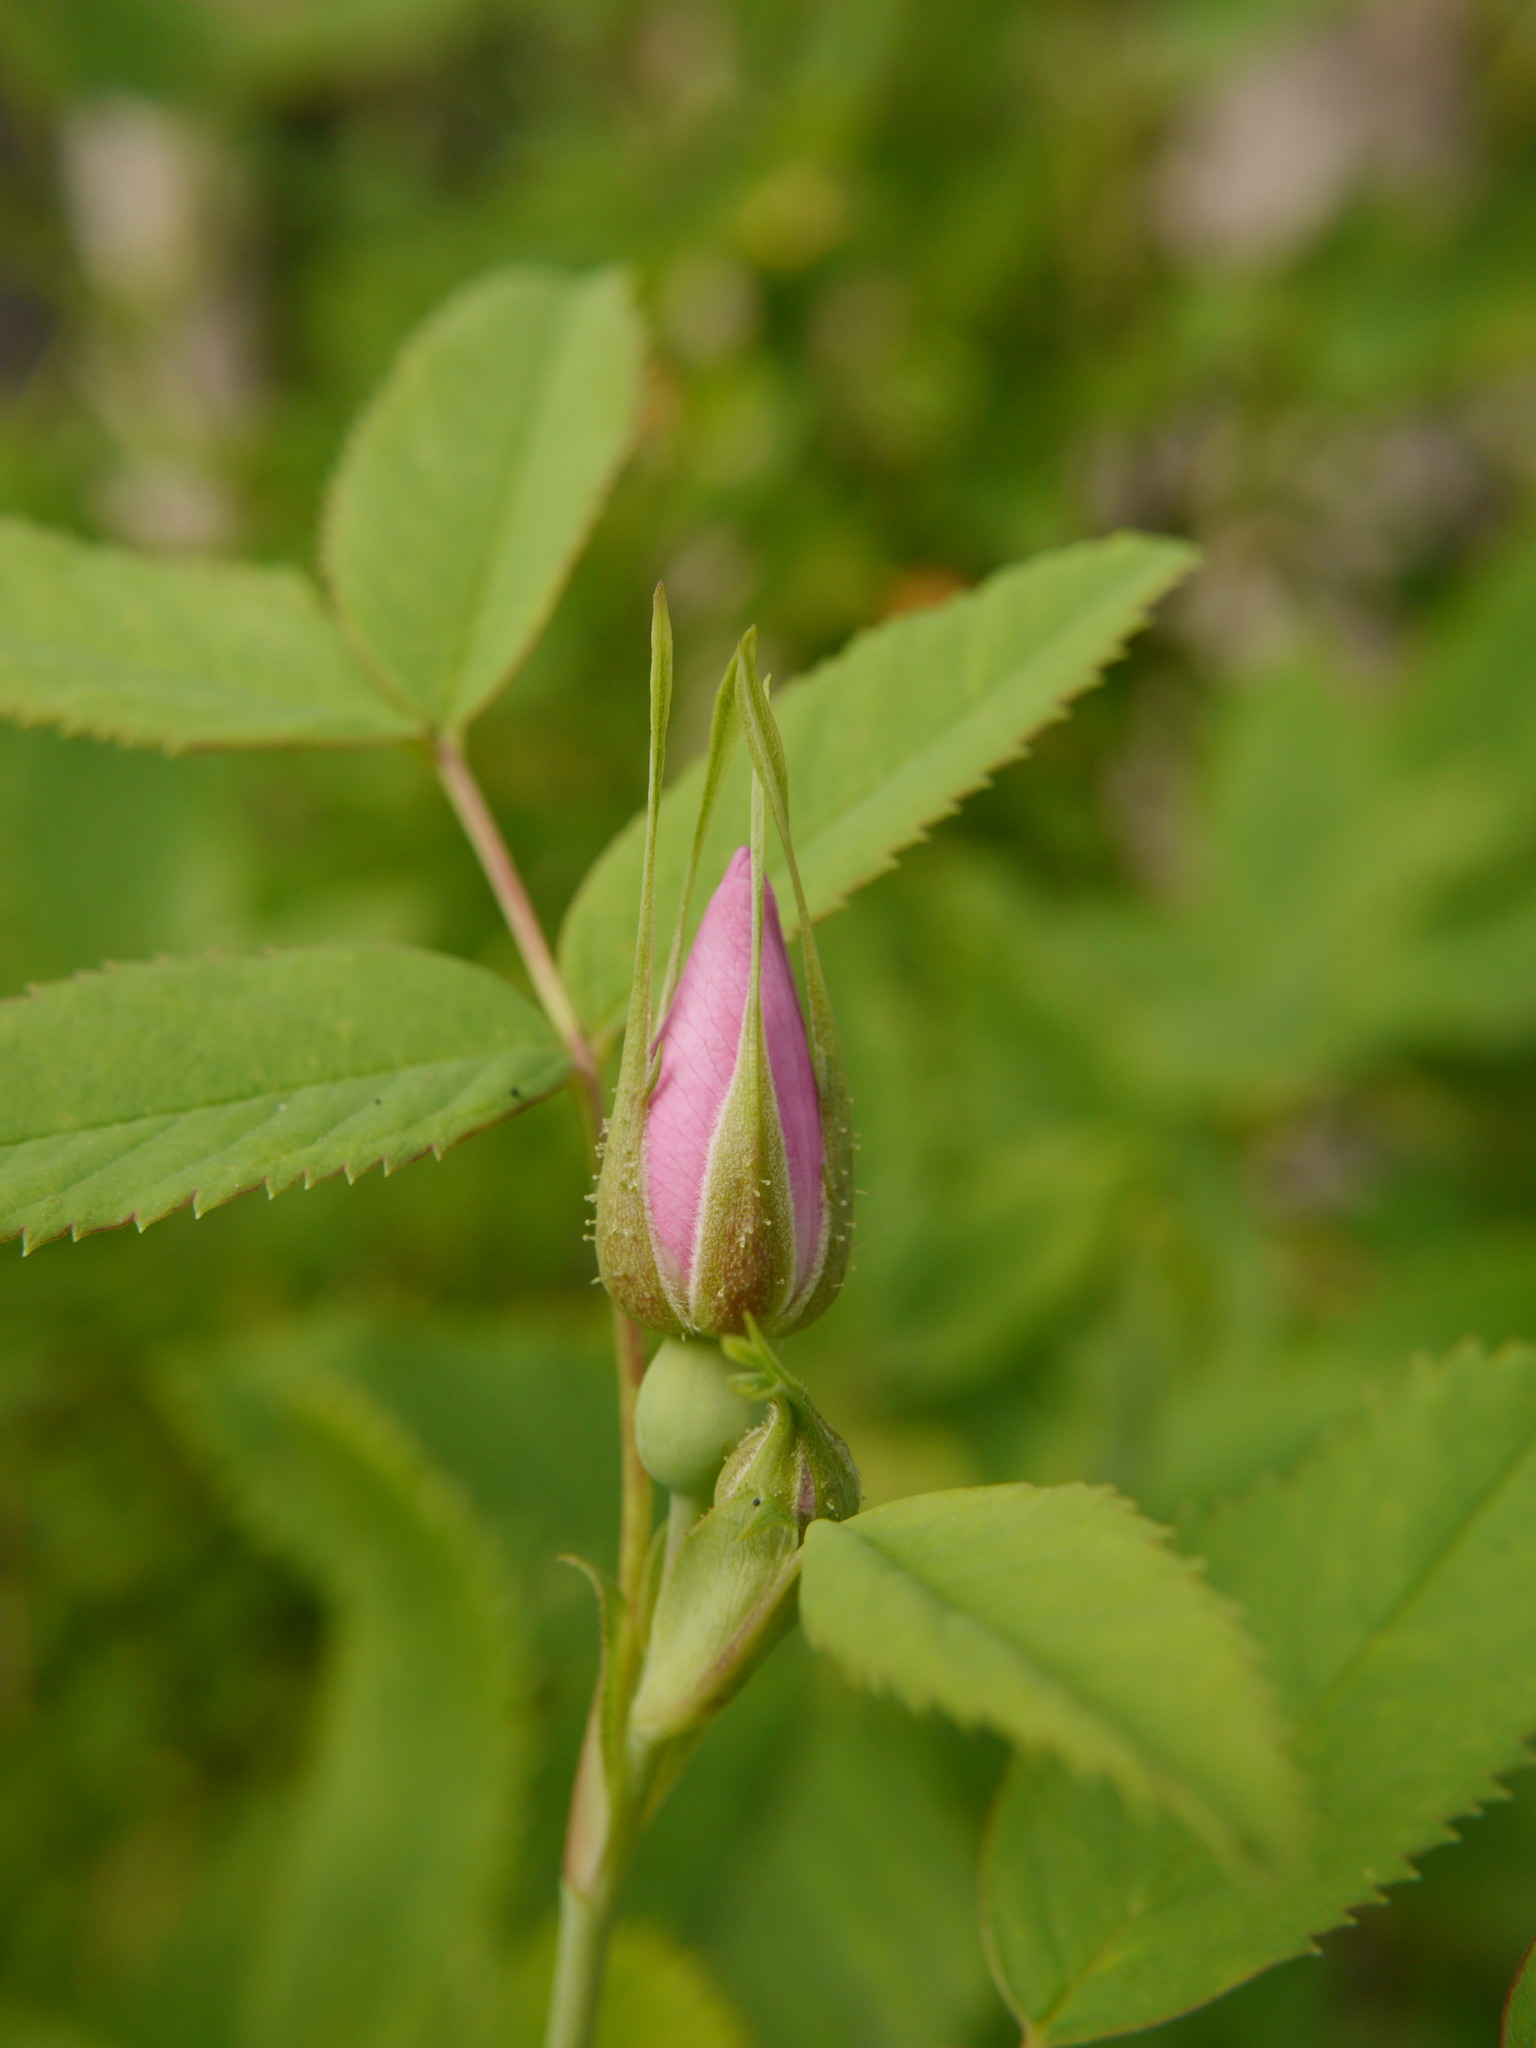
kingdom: Plantae
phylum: Tracheophyta
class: Magnoliopsida
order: Rosales
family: Rosaceae
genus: Rosa
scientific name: Rosa
